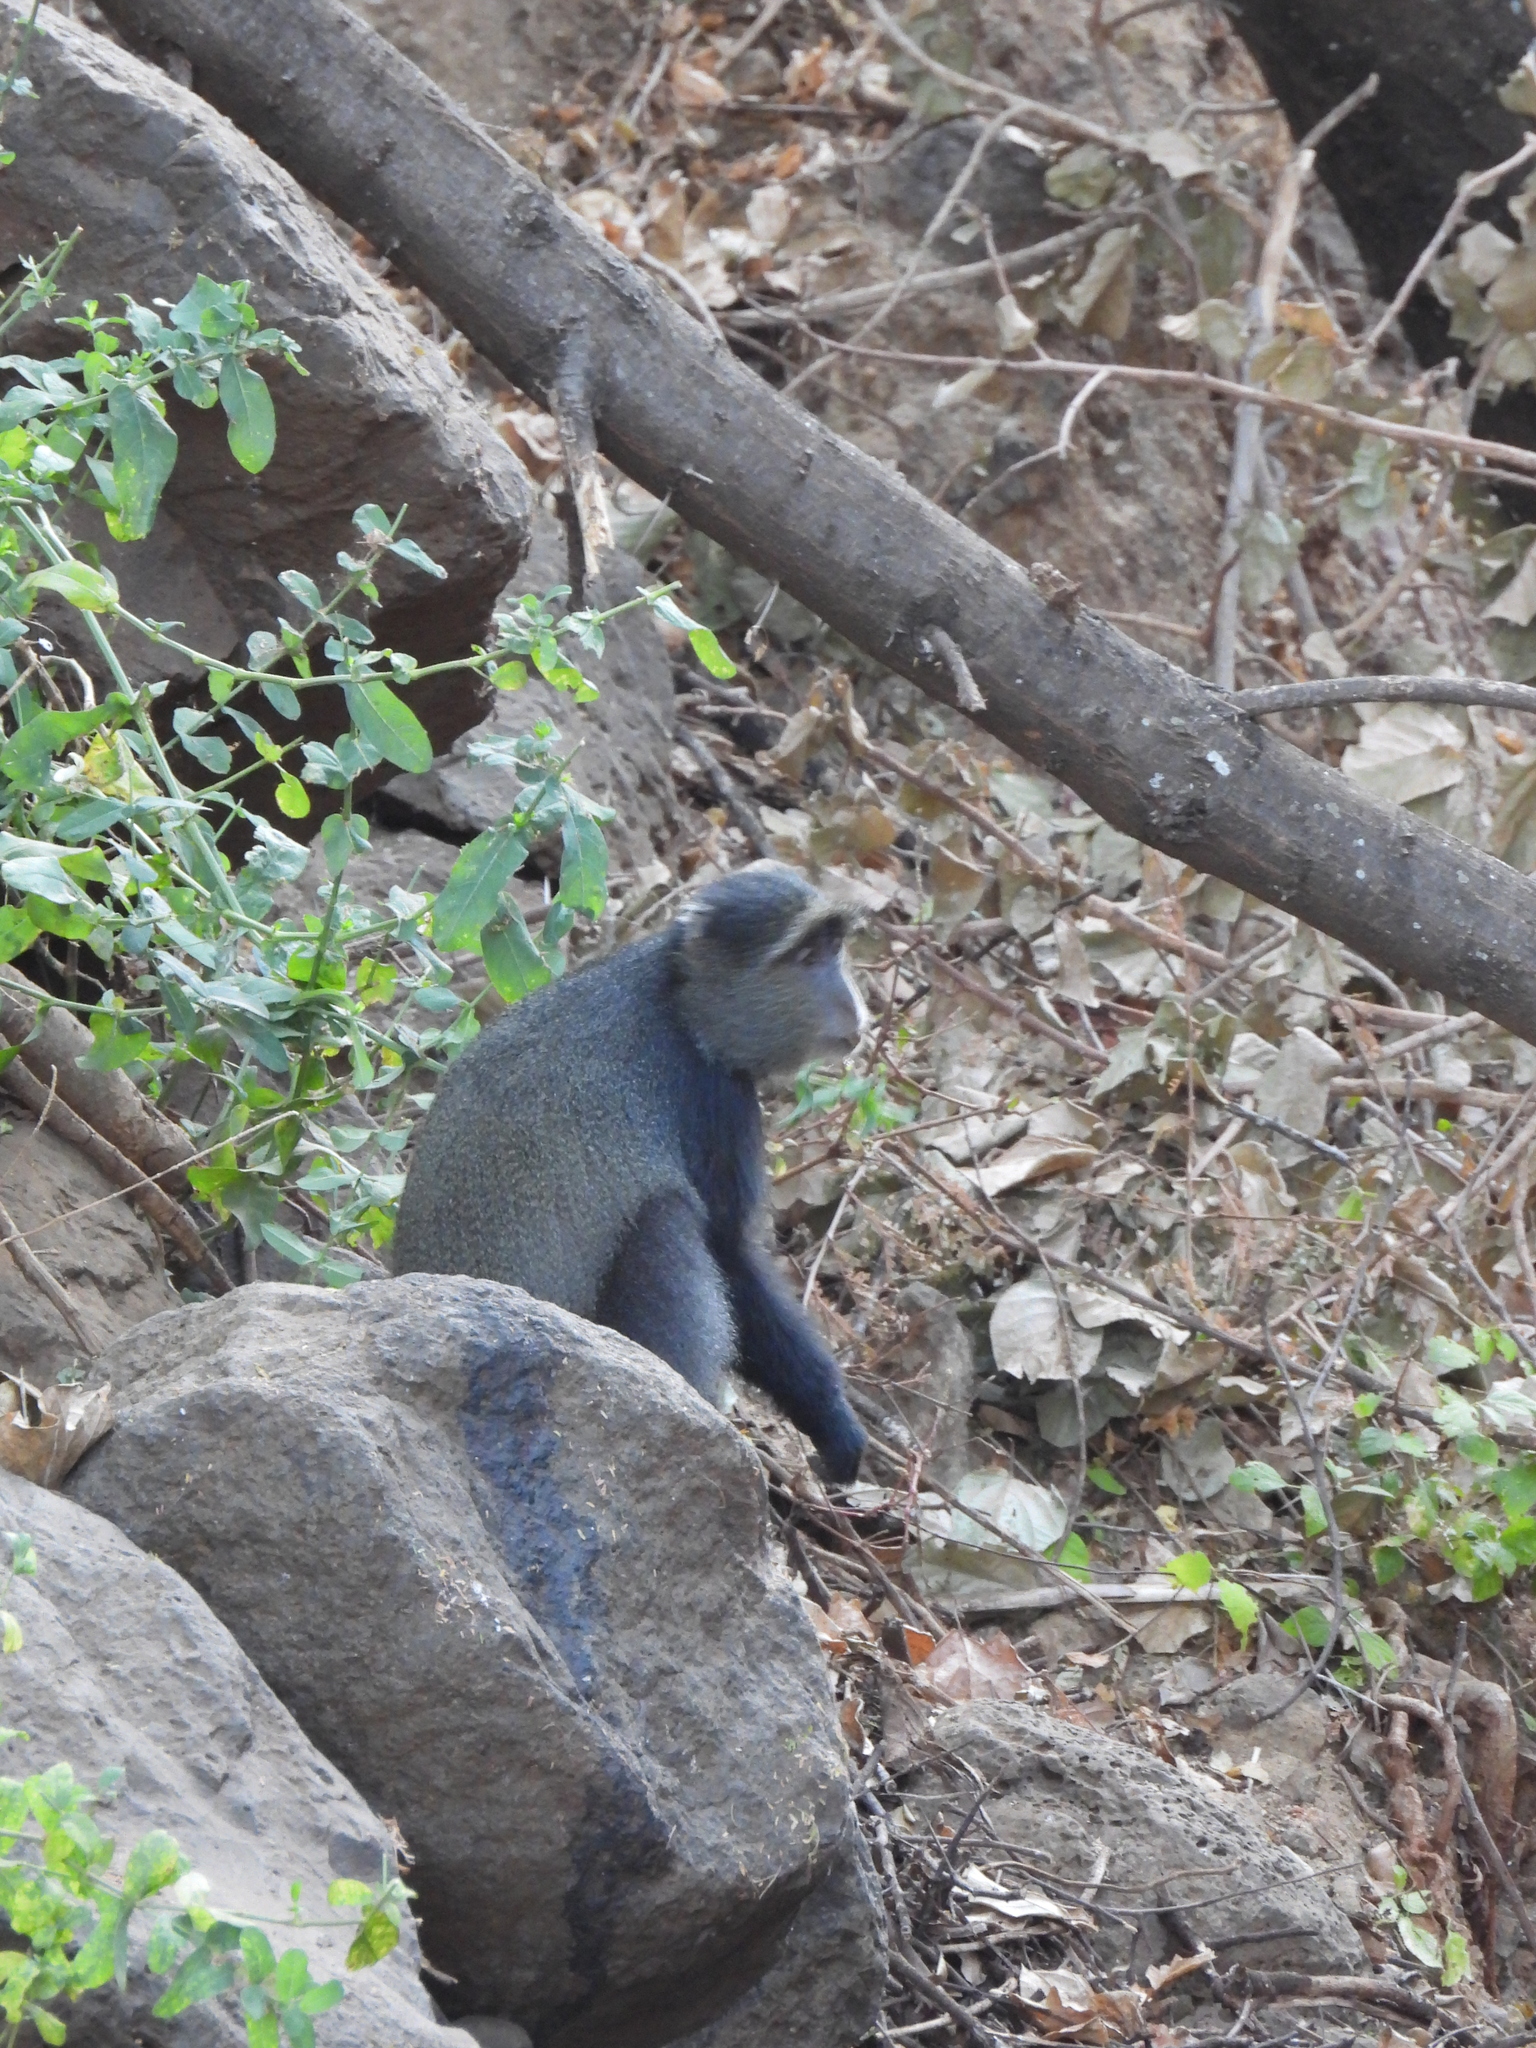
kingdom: Animalia
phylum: Chordata
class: Mammalia
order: Primates
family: Cercopithecidae
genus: Cercopithecus
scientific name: Cercopithecus mitis
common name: Blue monkey
